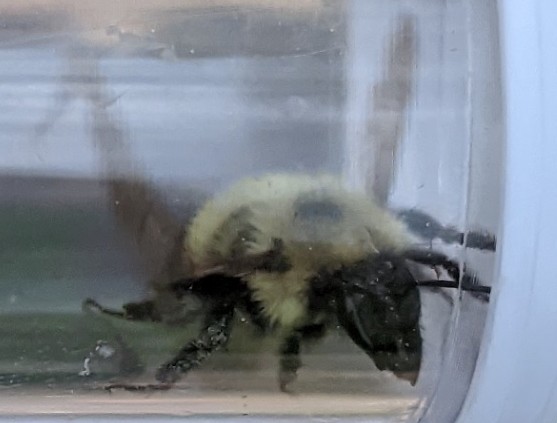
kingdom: Animalia
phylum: Arthropoda
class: Insecta
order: Hymenoptera
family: Apidae
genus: Bombus
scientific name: Bombus vagans
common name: Half-black bumble bee
